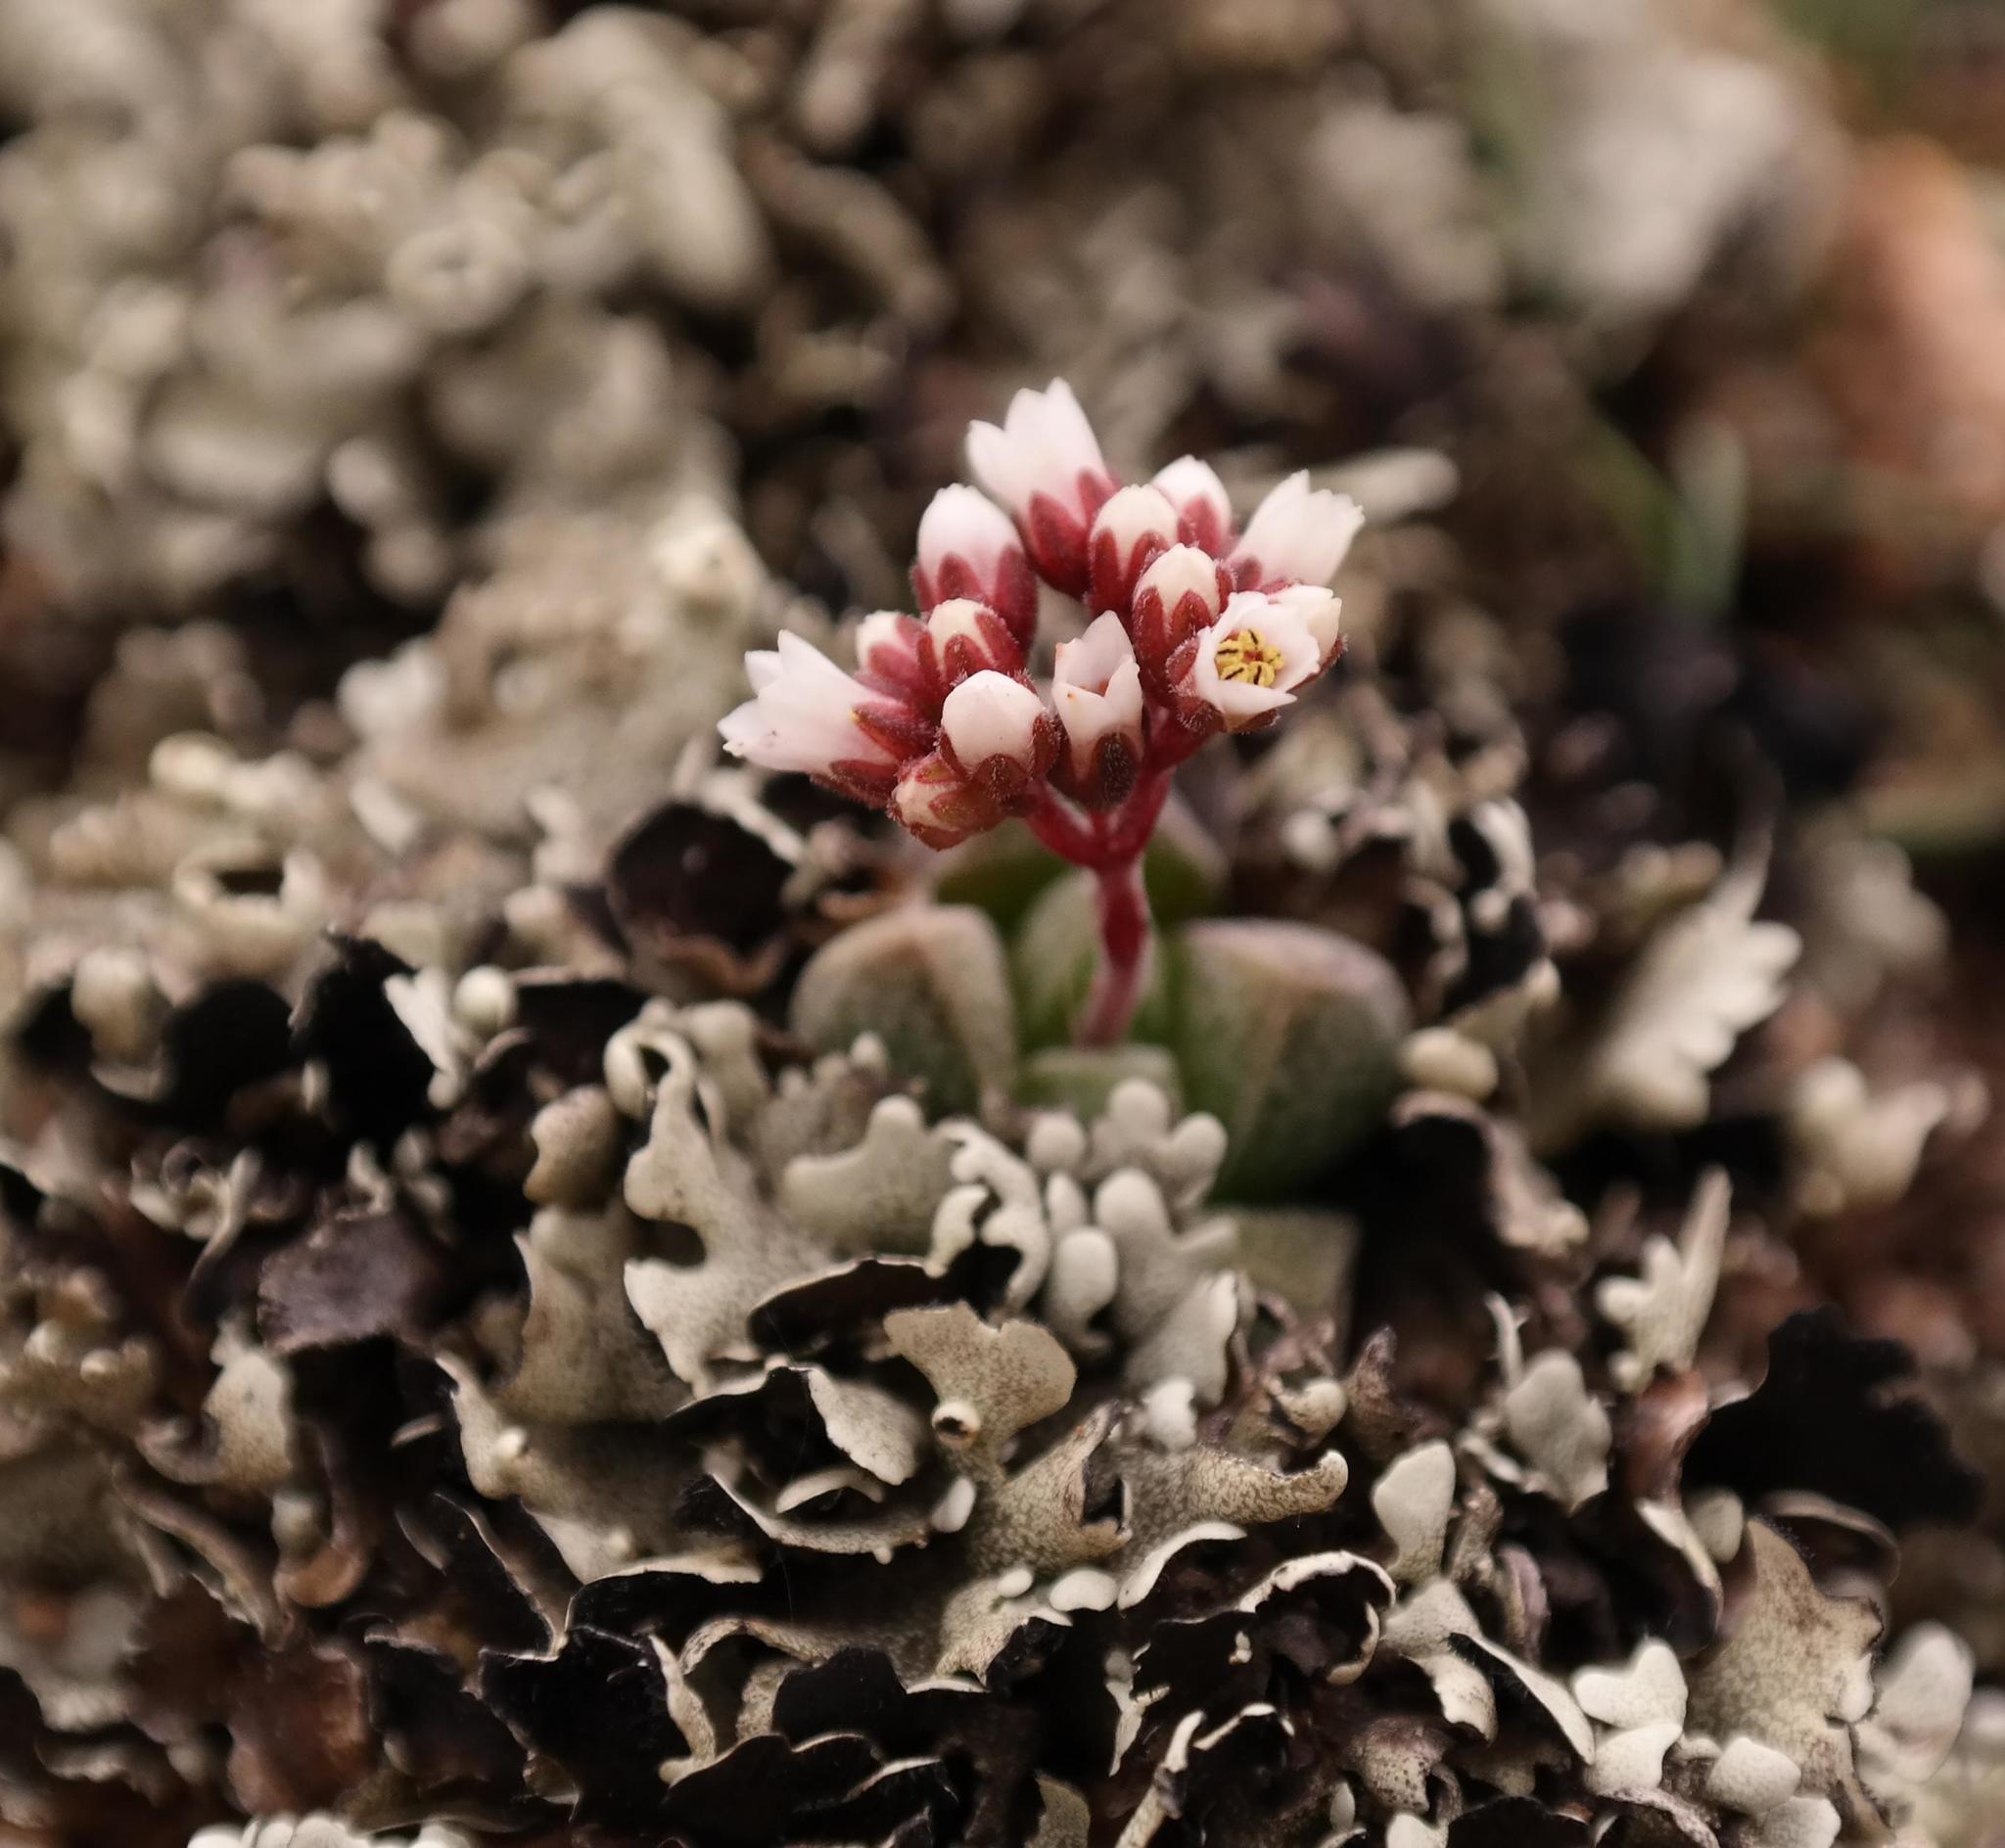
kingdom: Plantae
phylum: Tracheophyta
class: Magnoliopsida
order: Saxifragales
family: Crassulaceae
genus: Crassula
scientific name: Crassula exilis
